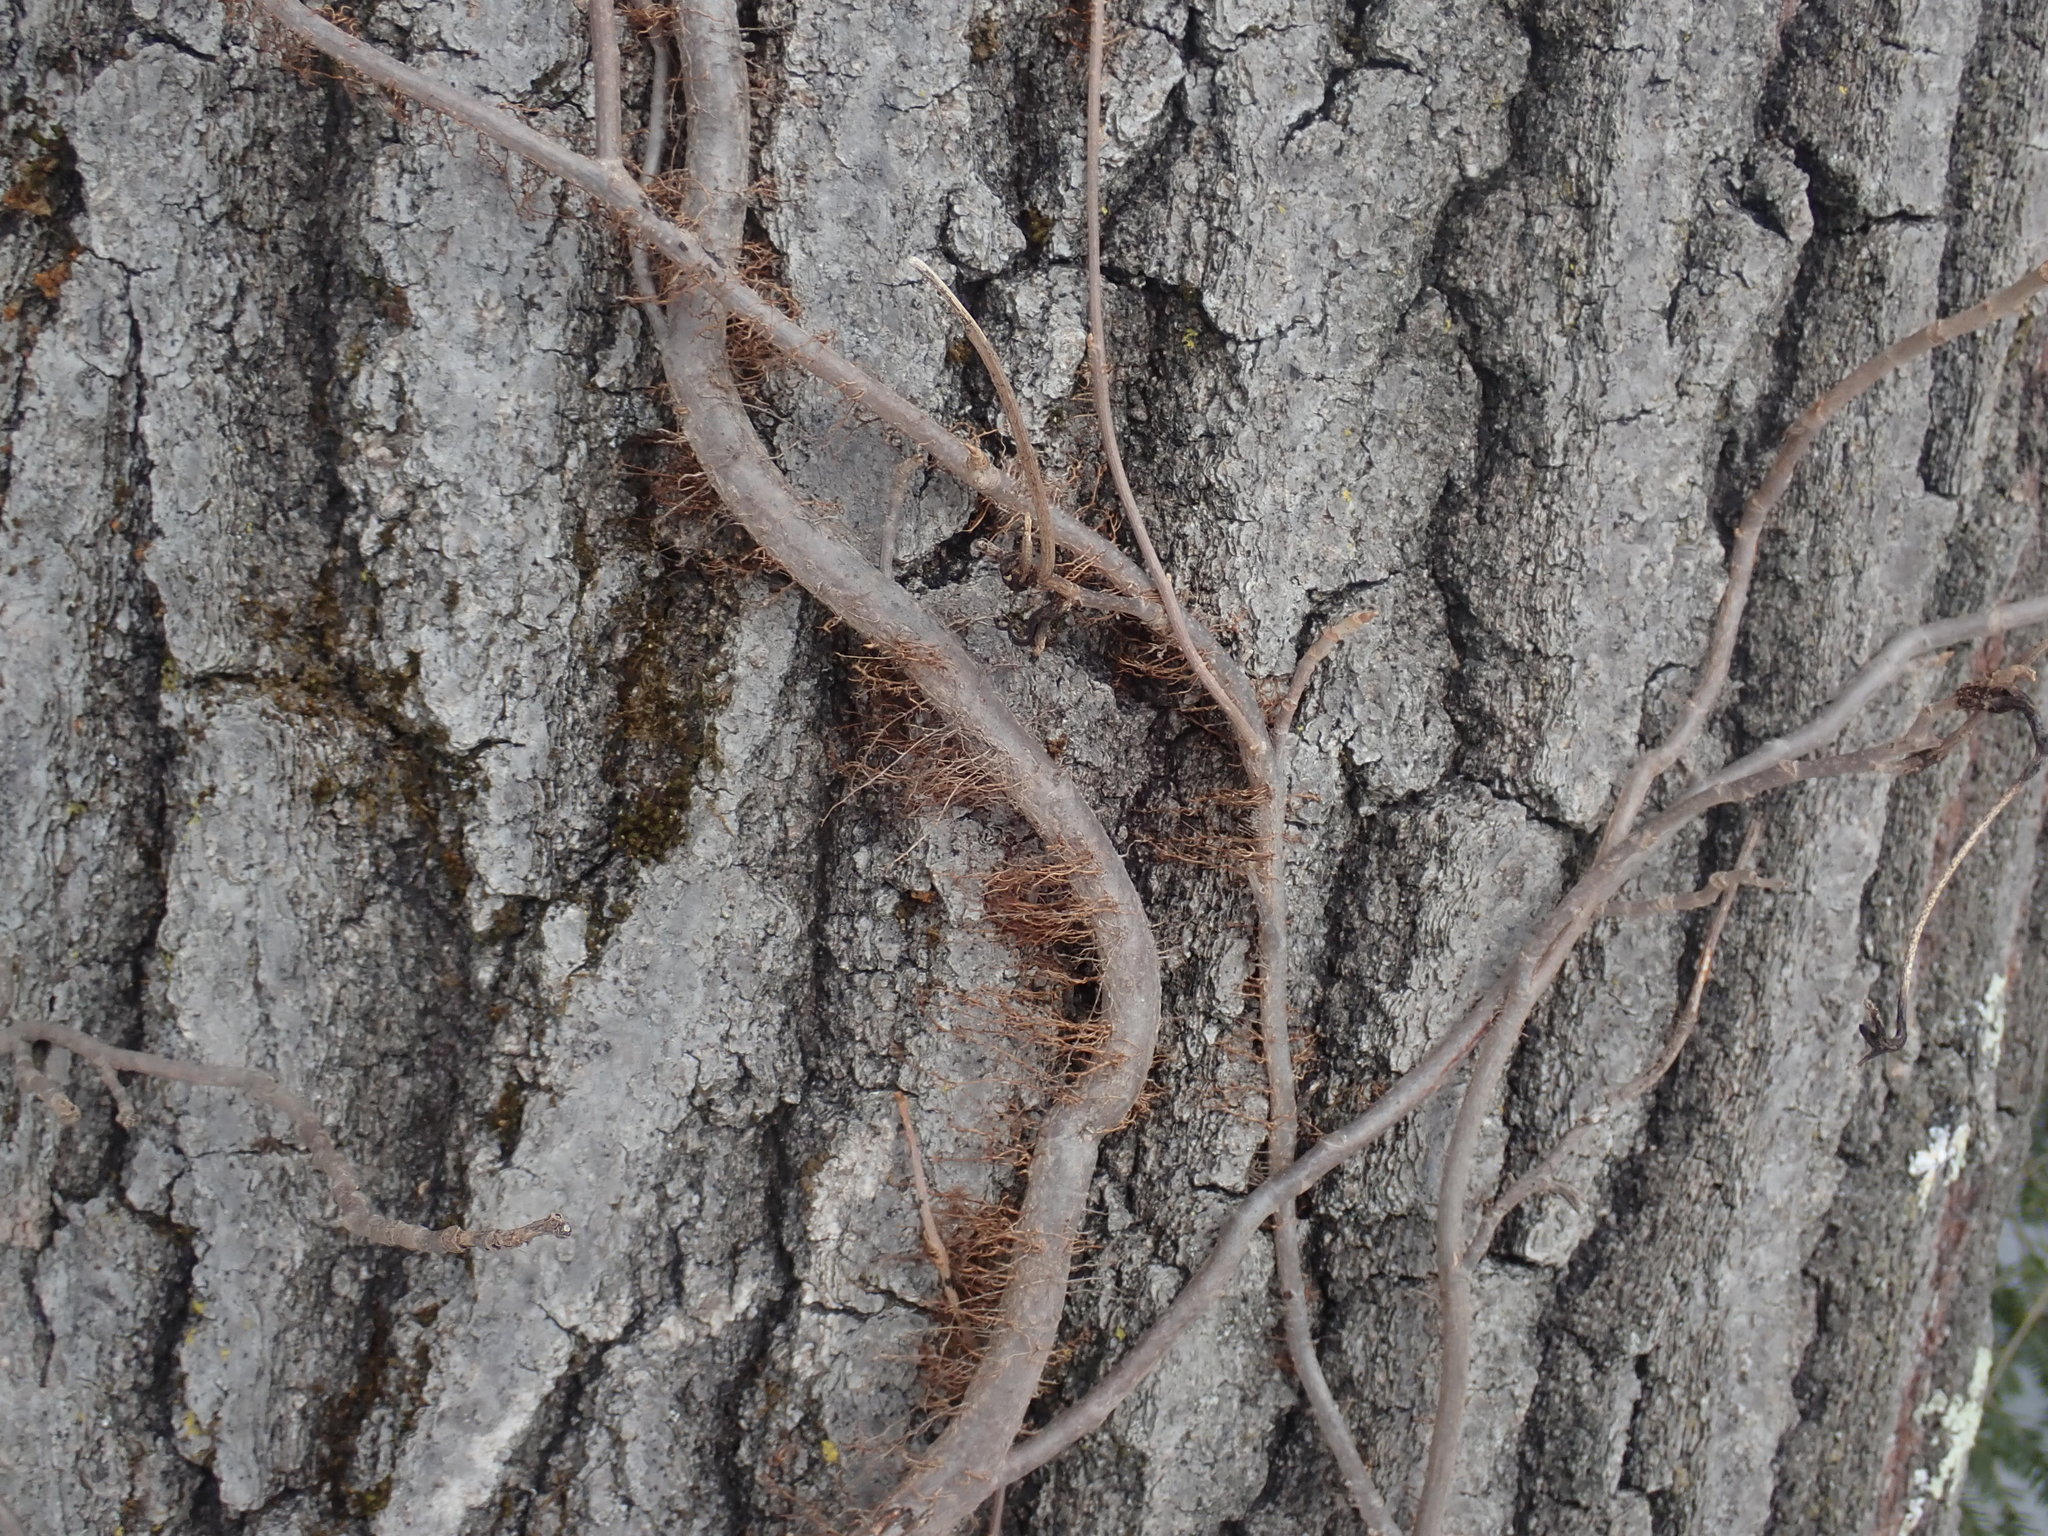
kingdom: Plantae
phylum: Tracheophyta
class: Magnoliopsida
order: Sapindales
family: Anacardiaceae
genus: Toxicodendron
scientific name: Toxicodendron radicans
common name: Poison ivy
